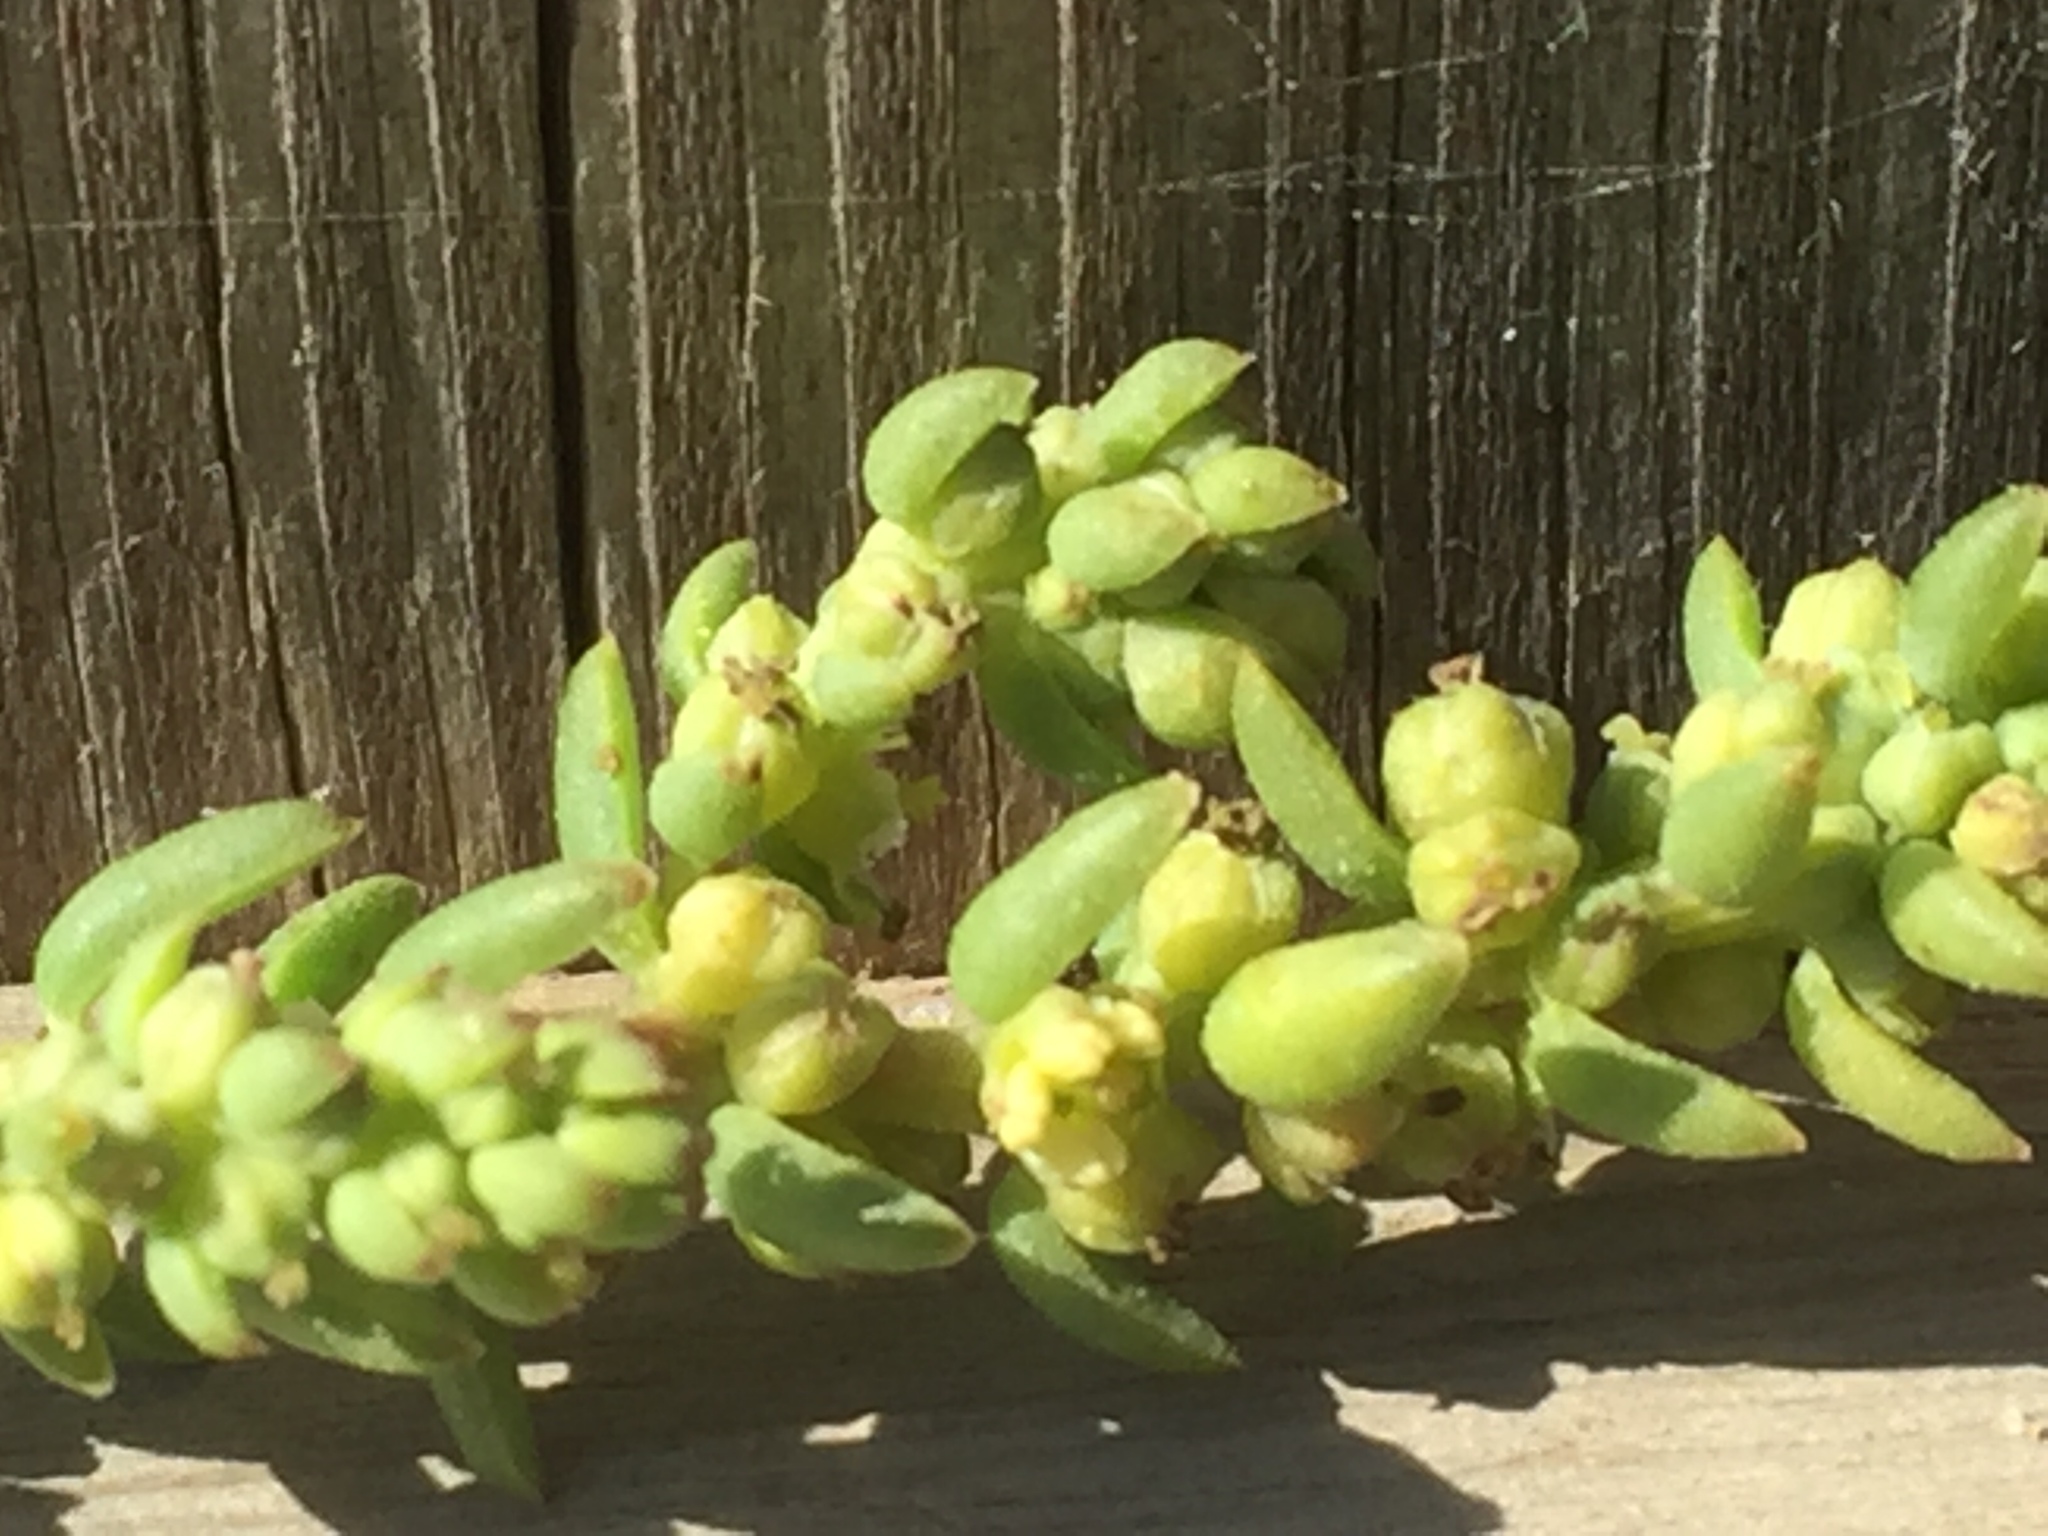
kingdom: Plantae
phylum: Tracheophyta
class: Magnoliopsida
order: Caryophyllales
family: Amaranthaceae
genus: Suaeda
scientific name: Suaeda vera
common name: Shrubby sea-blite
